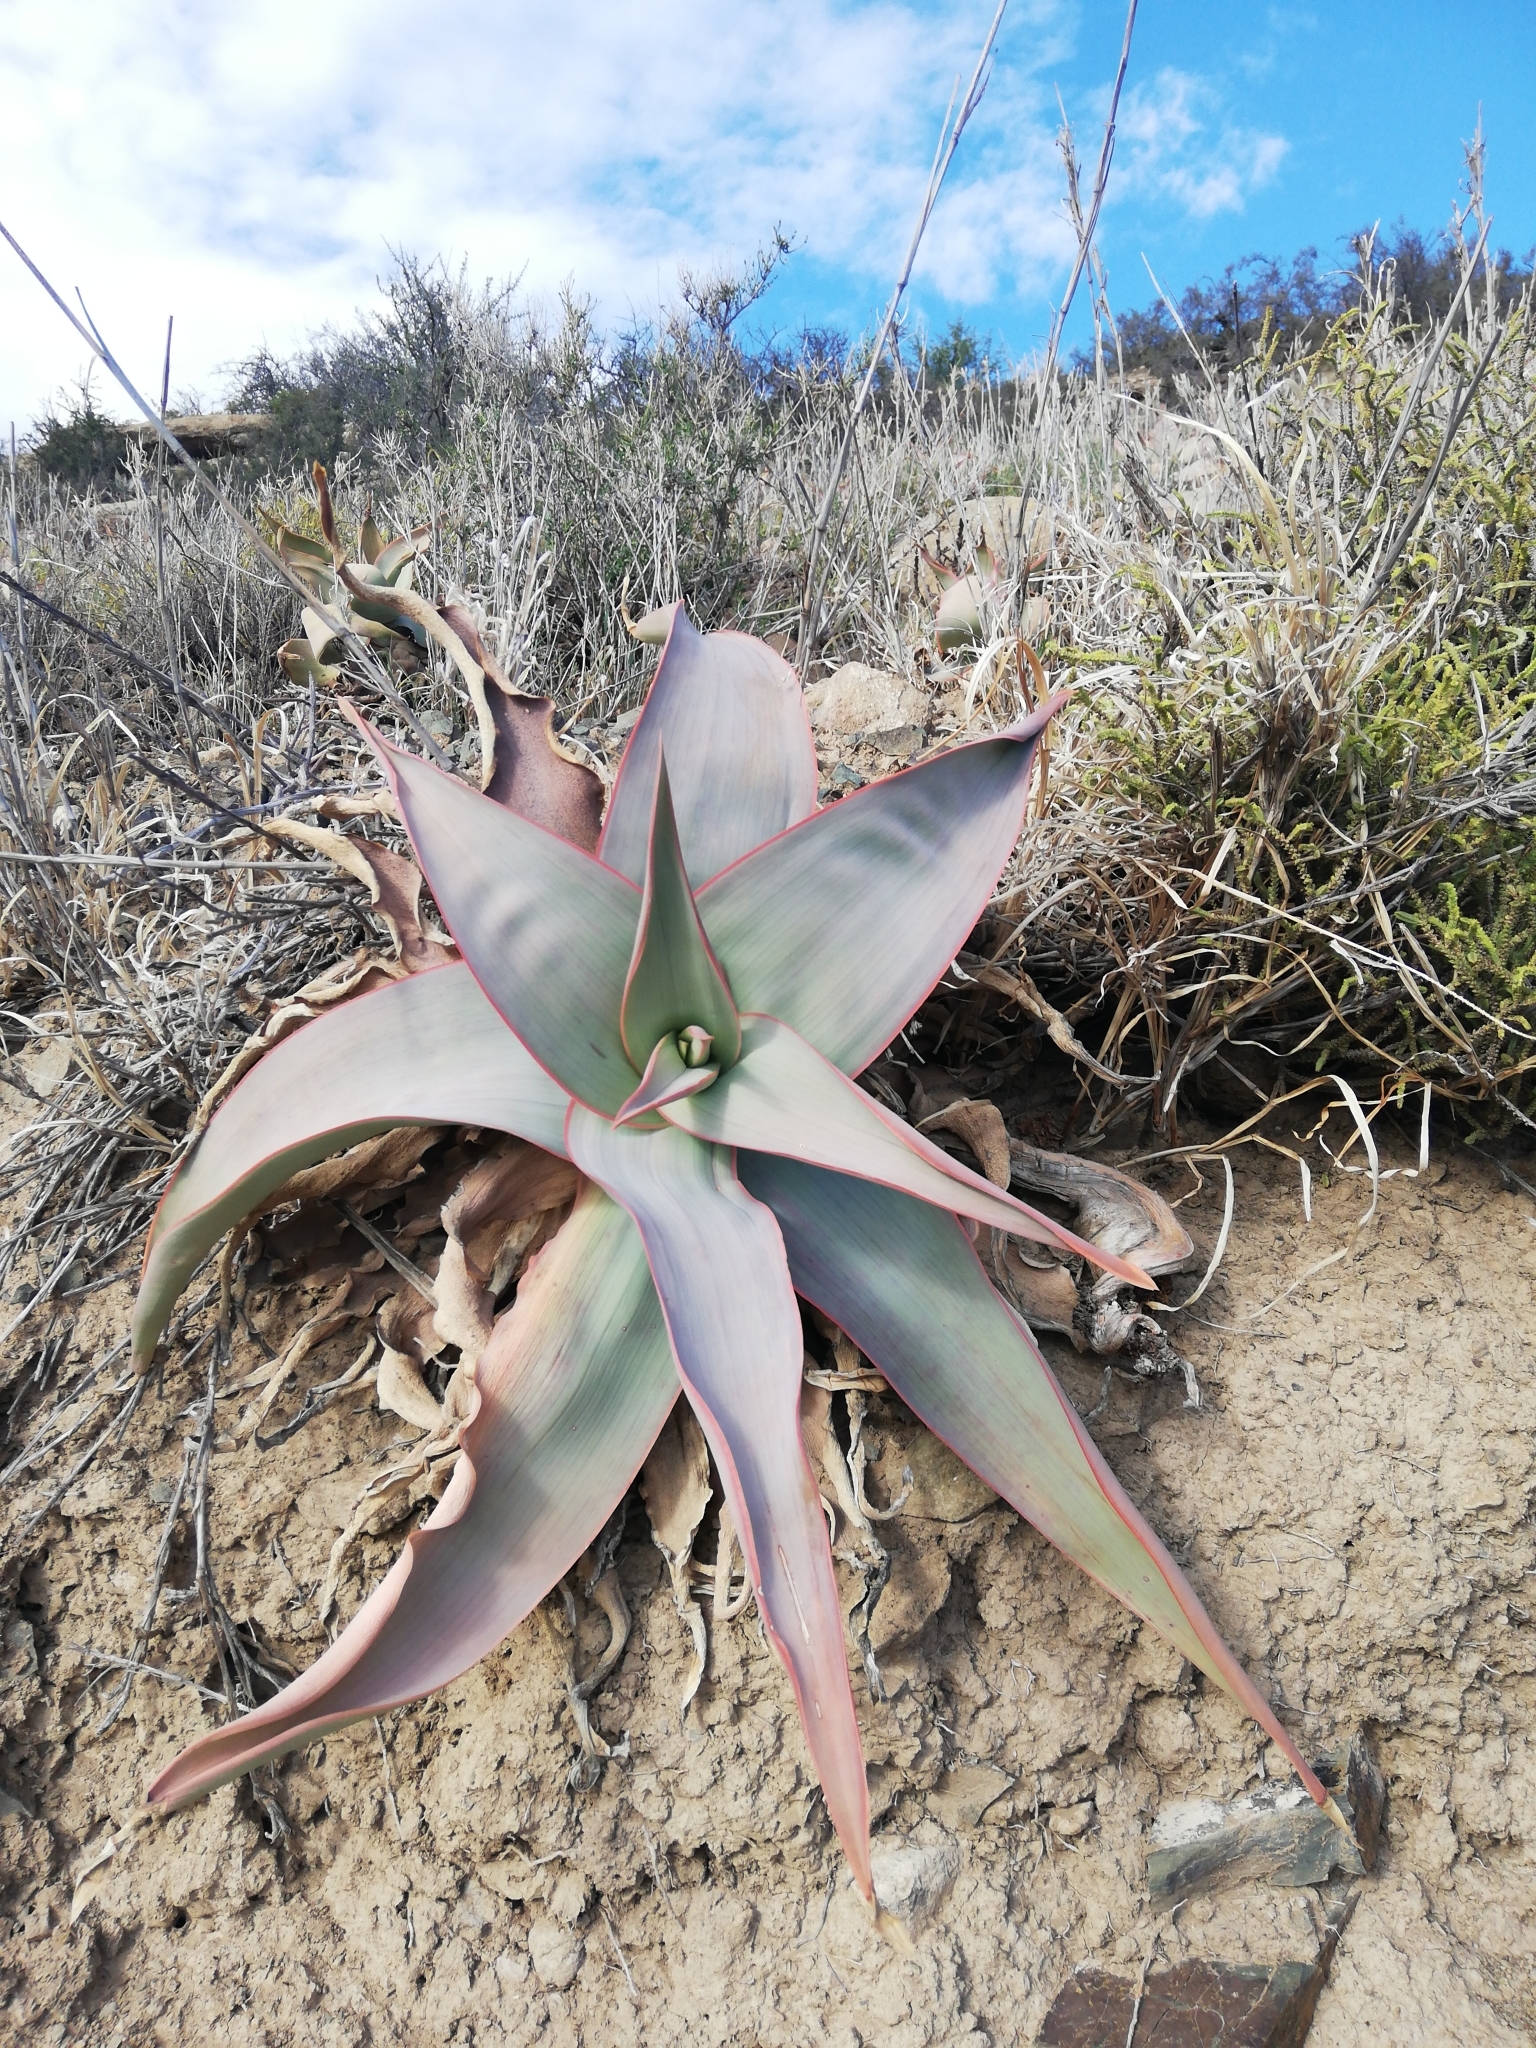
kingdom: Plantae
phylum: Tracheophyta
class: Liliopsida
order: Asparagales
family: Asphodelaceae
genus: Aloe
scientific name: Aloe striata
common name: Coral aloe
